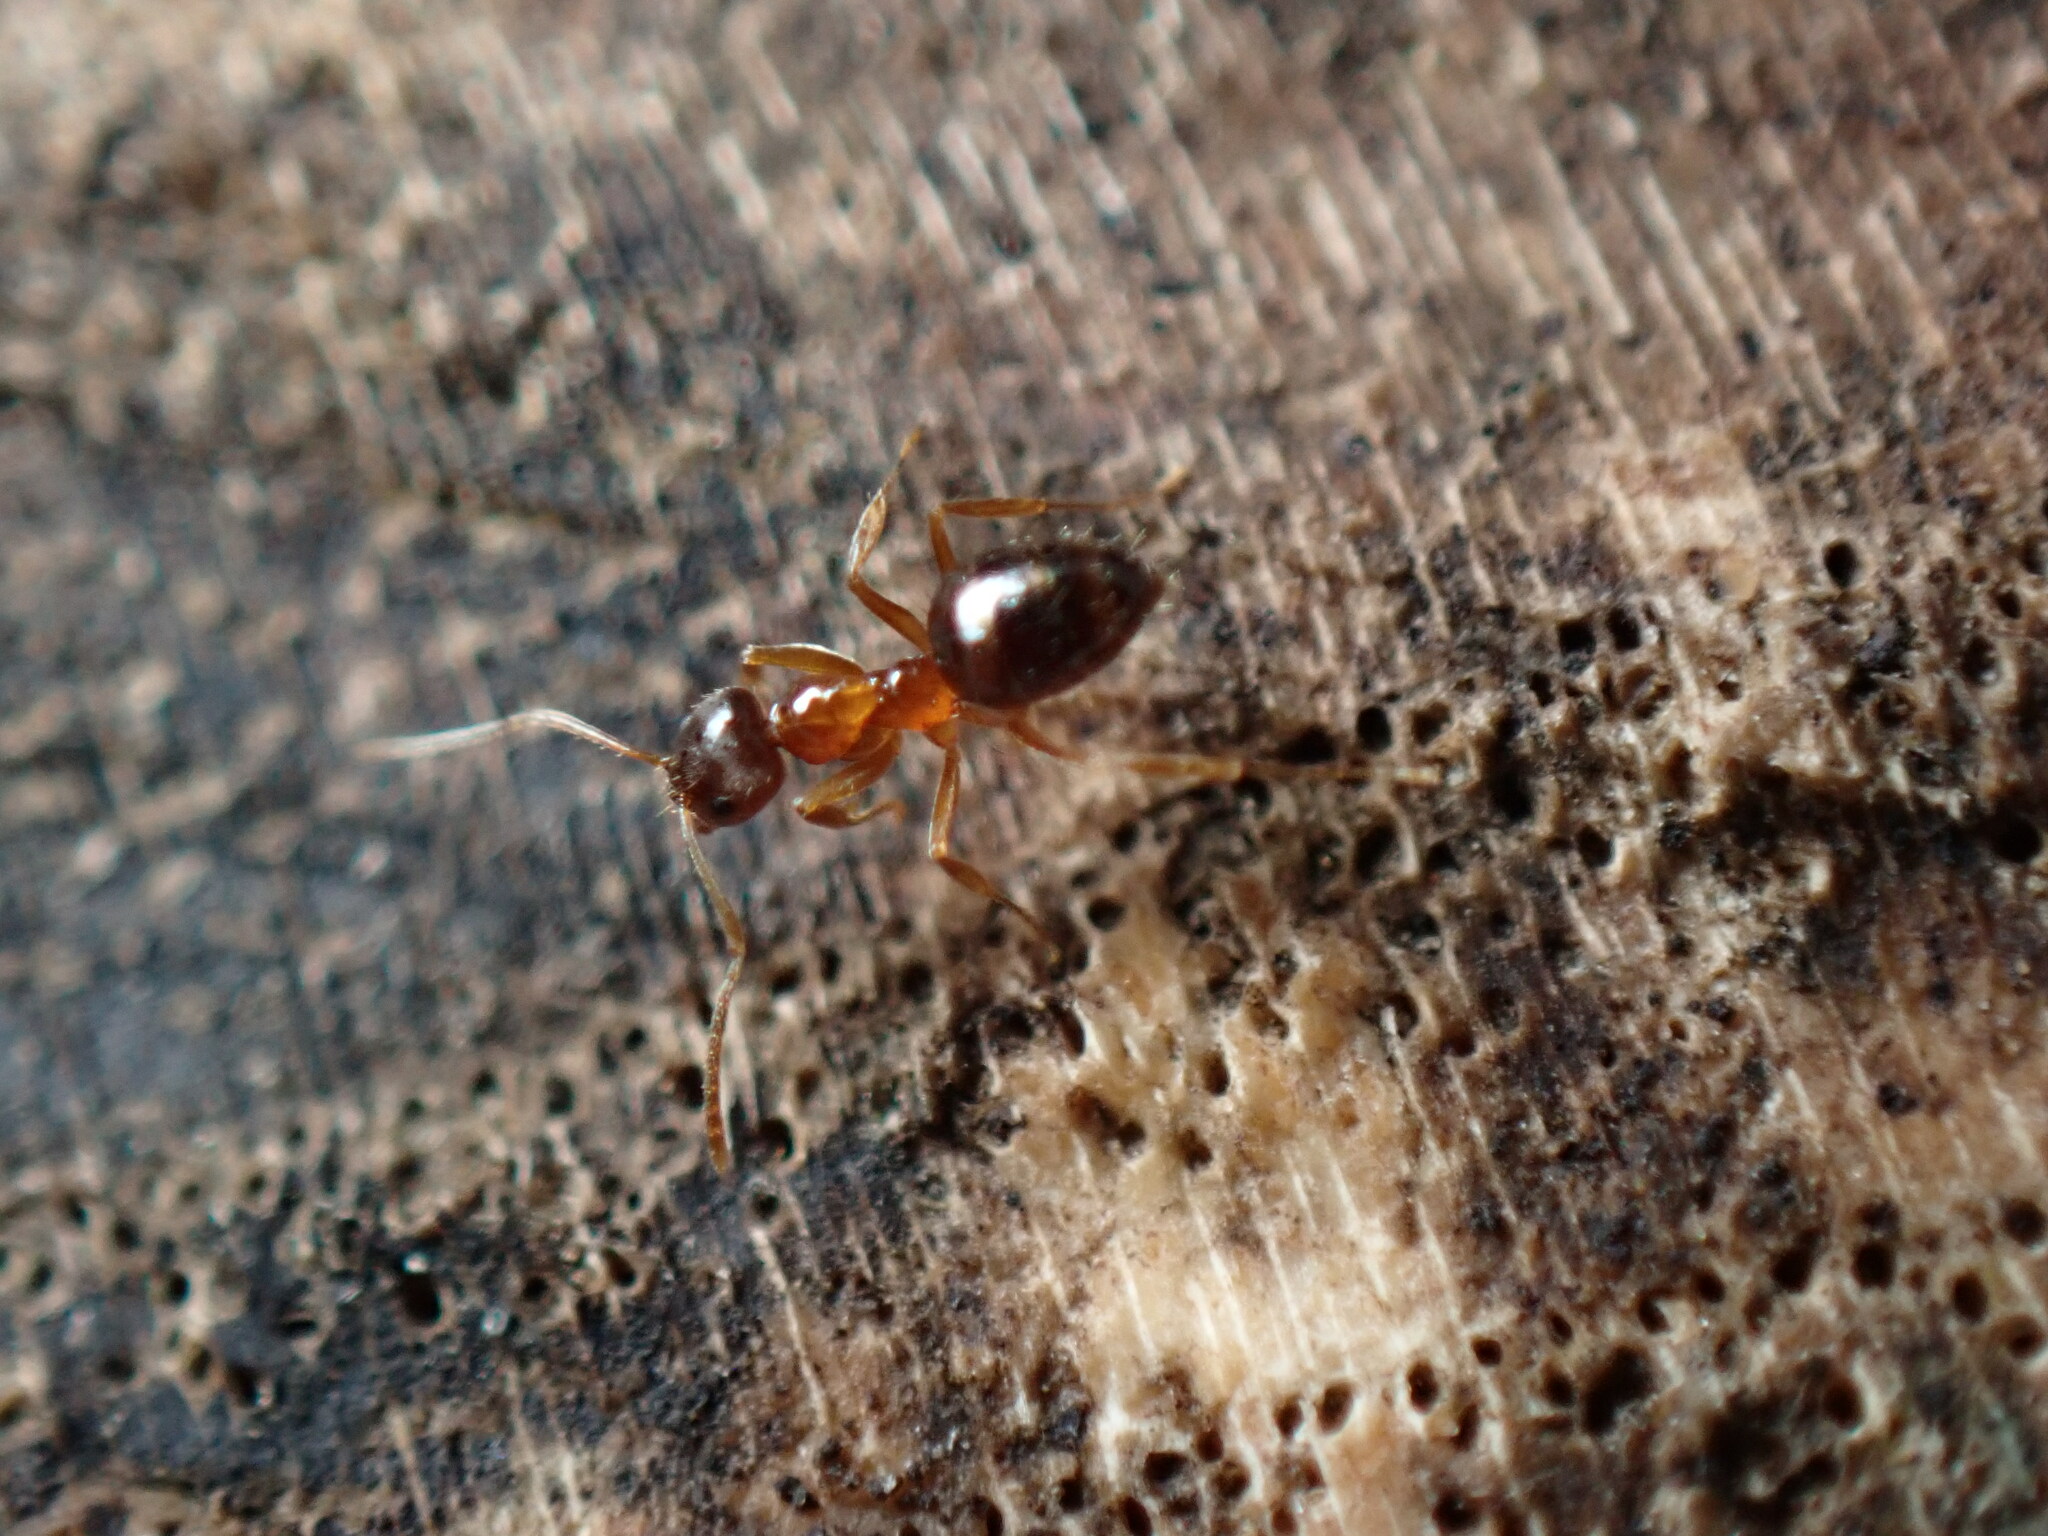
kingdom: Animalia
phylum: Arthropoda
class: Insecta
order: Hymenoptera
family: Formicidae
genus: Paratrechina
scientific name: Paratrechina flavipes
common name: Eastern asian formicine ant
